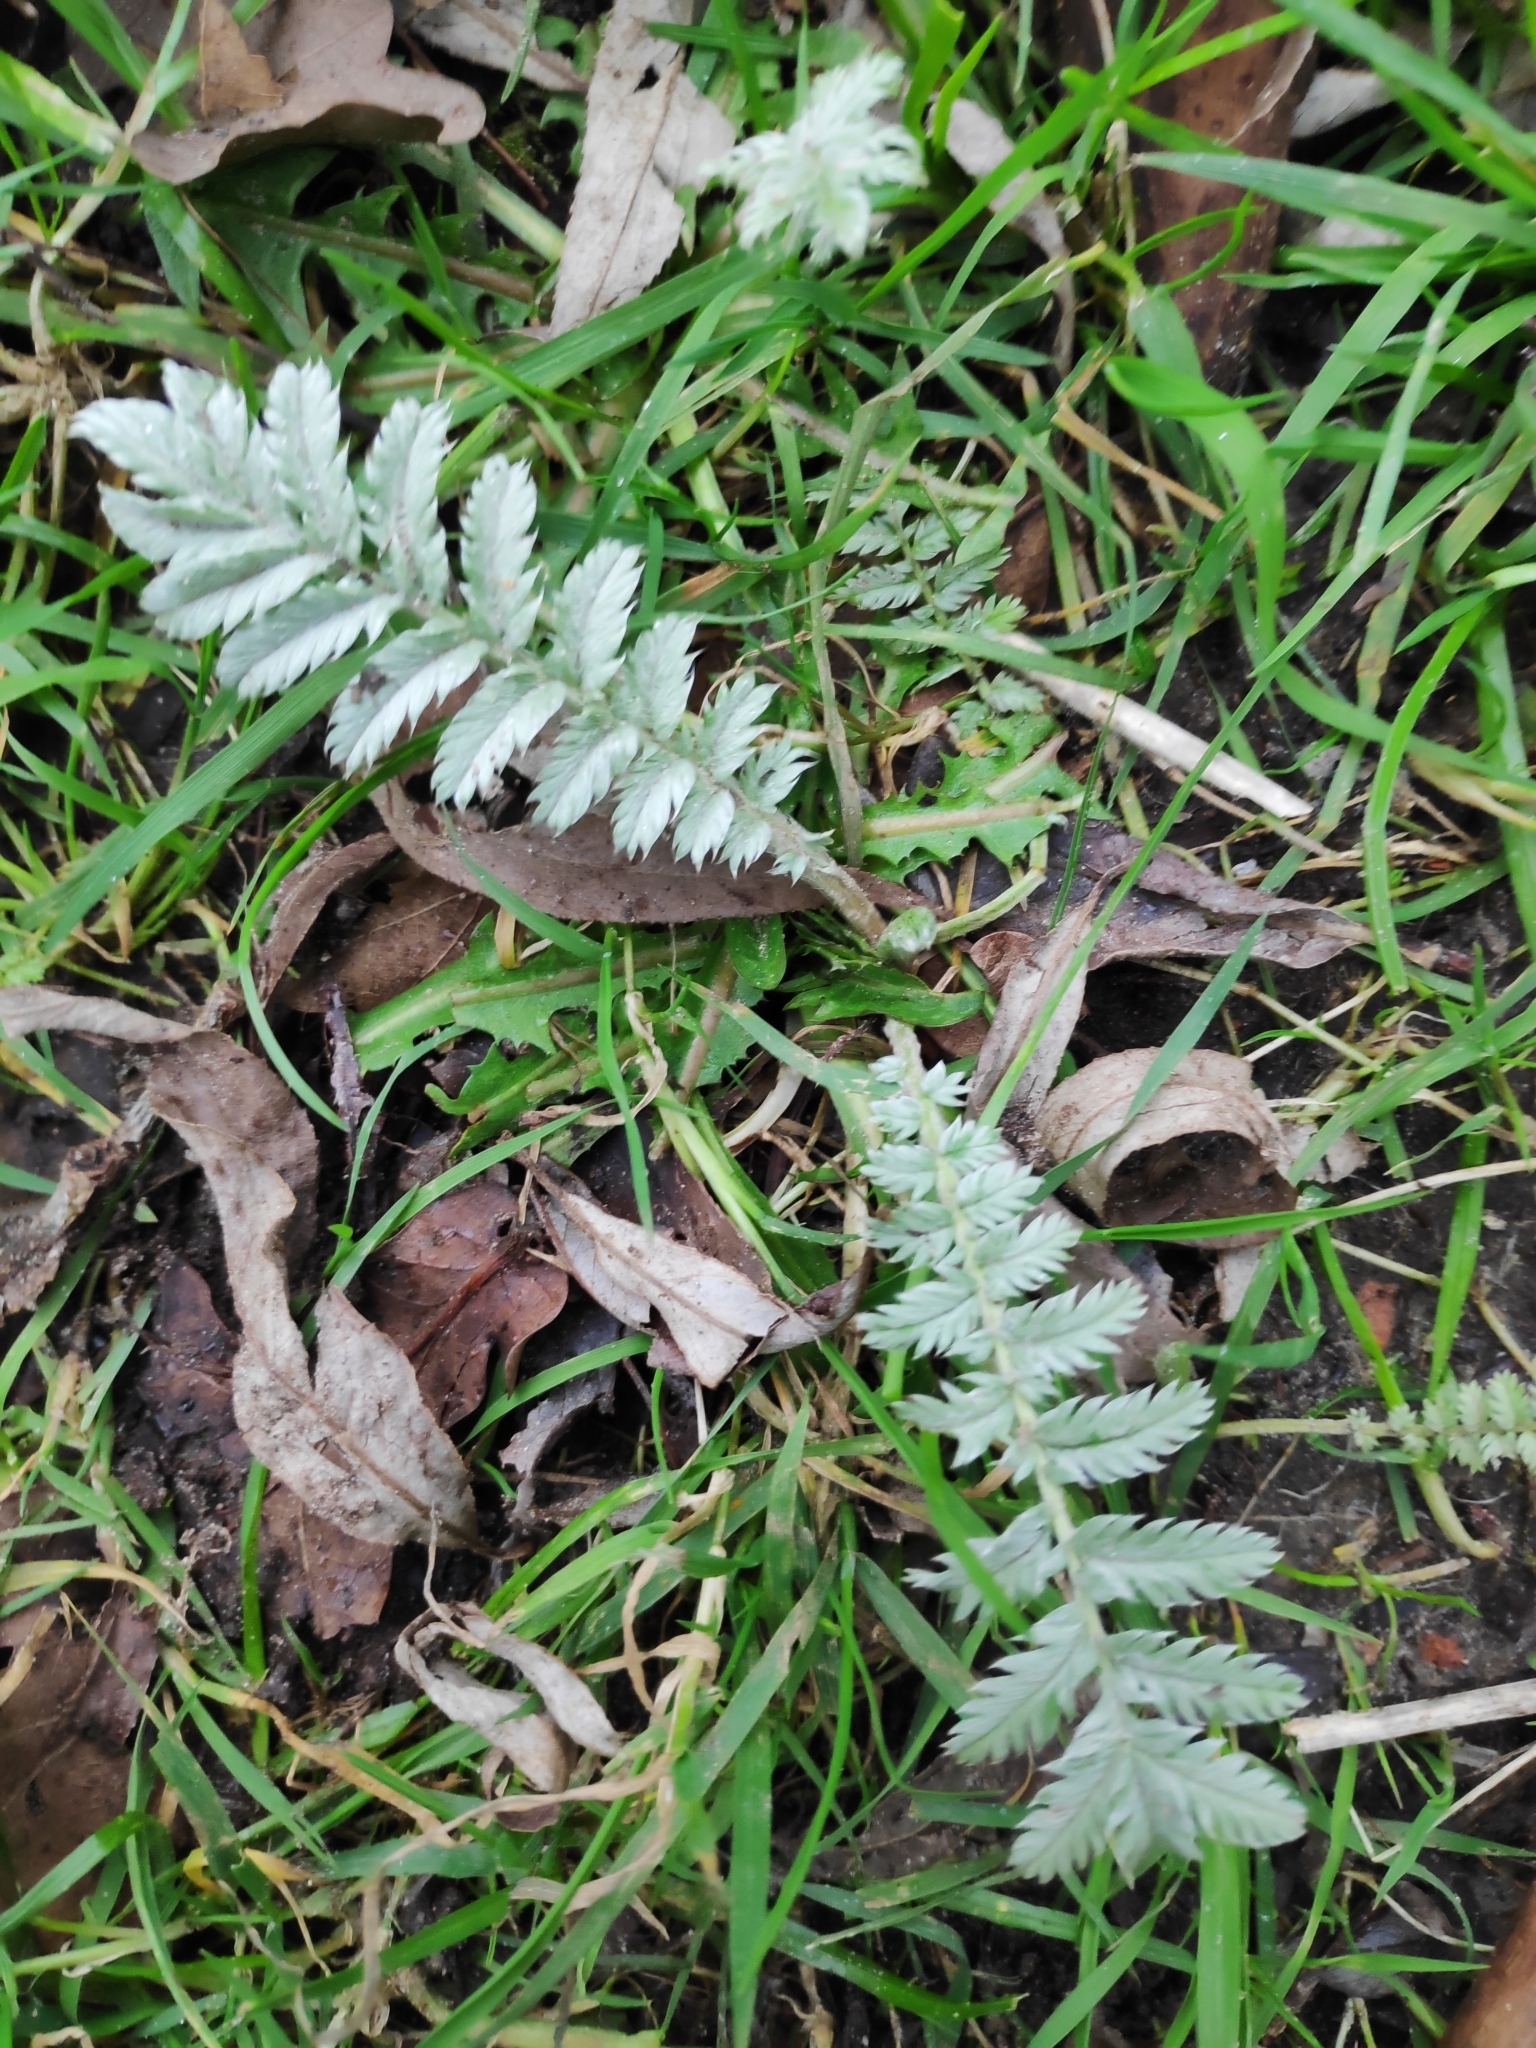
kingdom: Plantae
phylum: Tracheophyta
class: Magnoliopsida
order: Rosales
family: Rosaceae
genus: Argentina
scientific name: Argentina anserina
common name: Common silverweed
